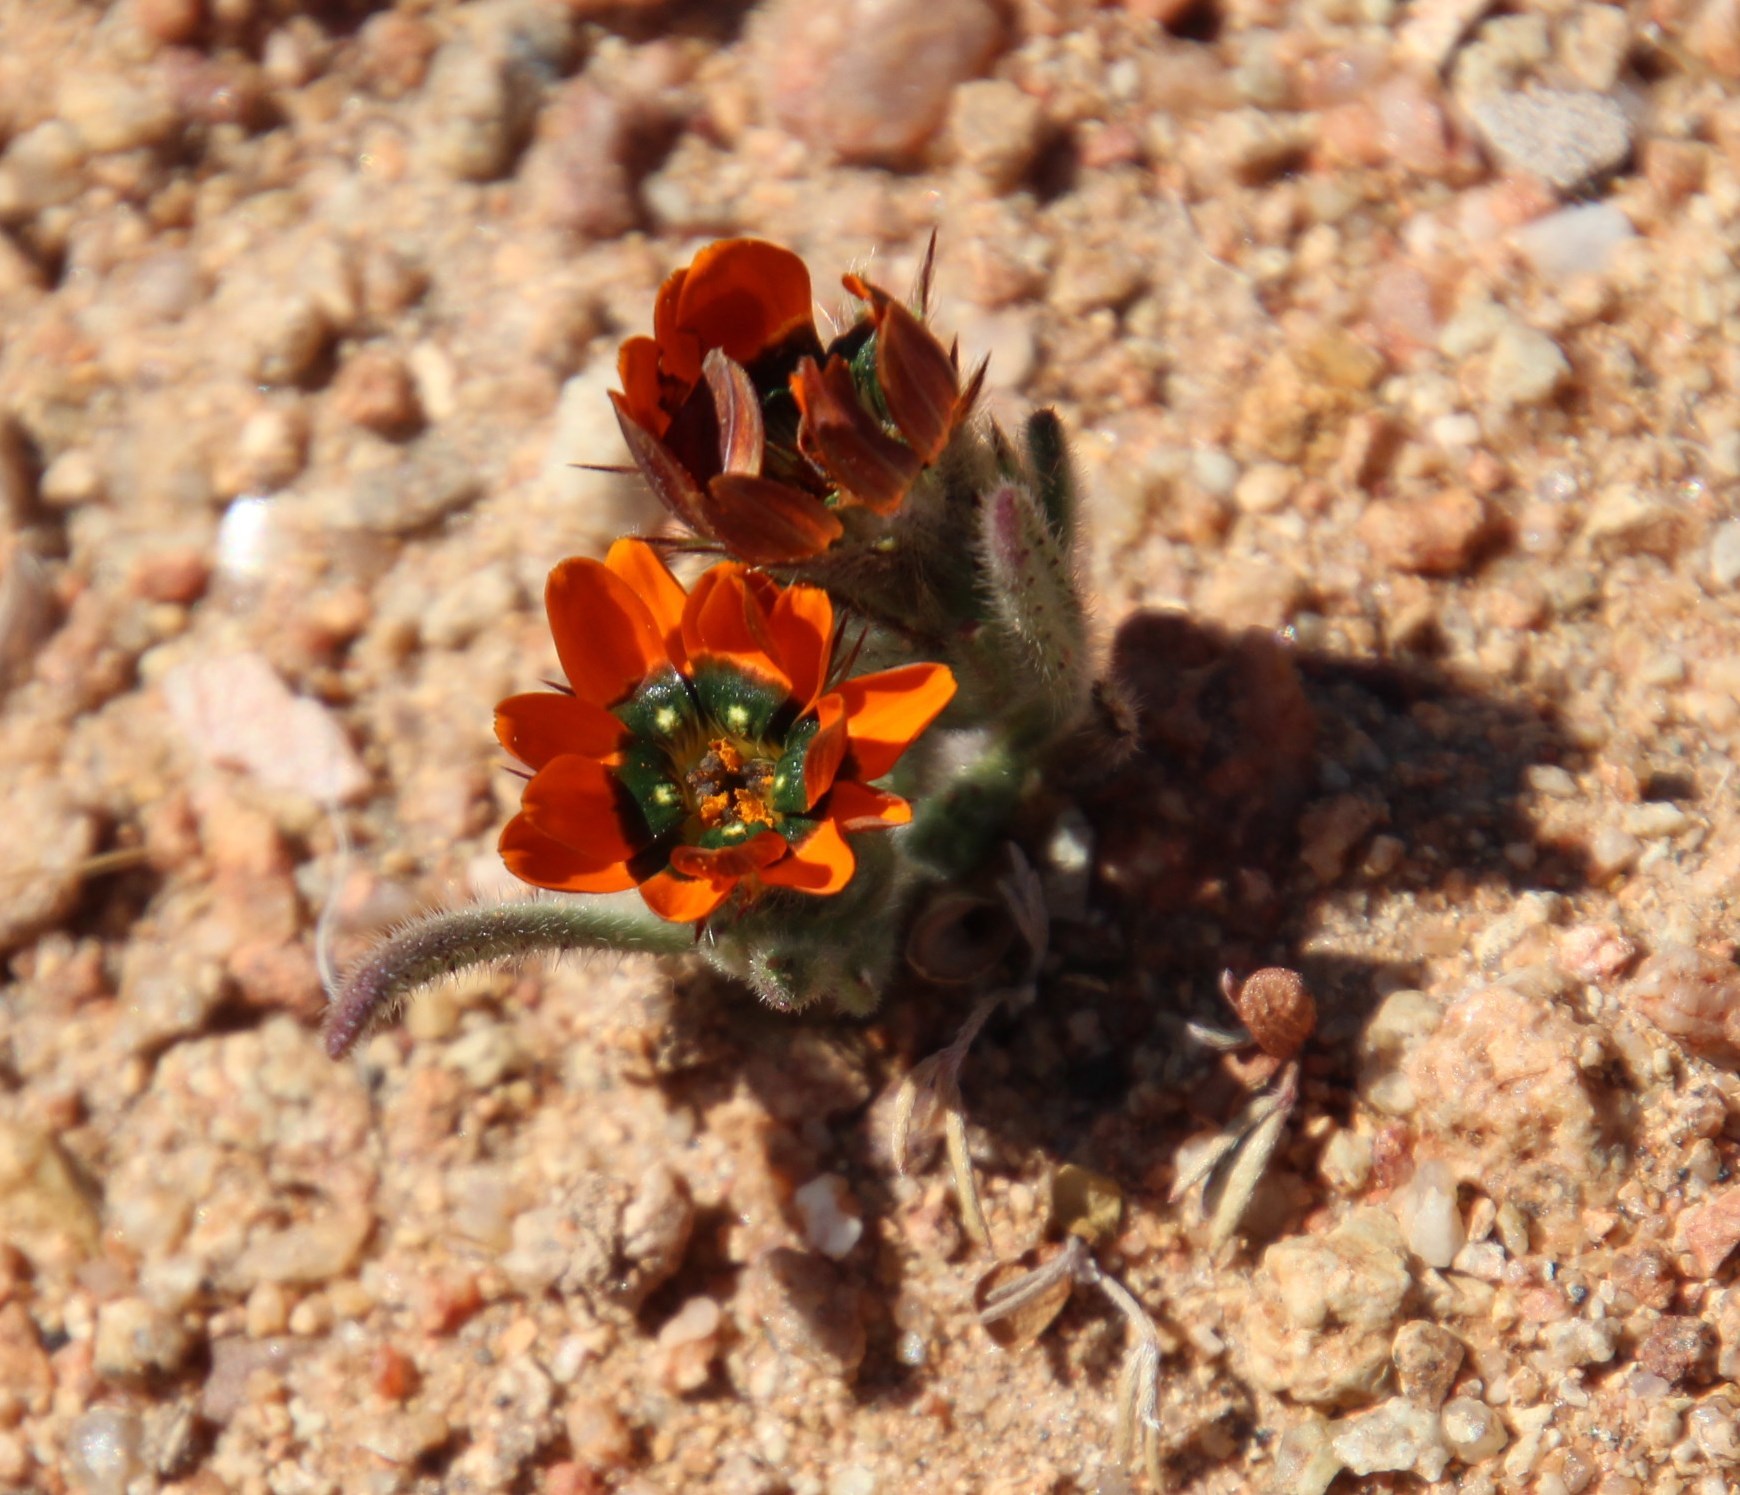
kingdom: Plantae
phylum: Tracheophyta
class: Magnoliopsida
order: Asterales
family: Asteraceae
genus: Gorteria
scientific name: Gorteria diffusa
